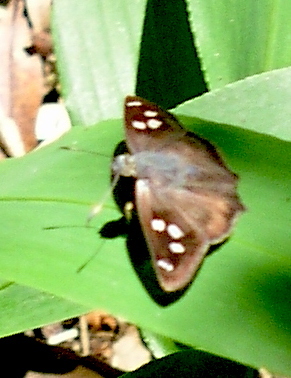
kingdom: Animalia
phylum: Arthropoda
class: Insecta
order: Lepidoptera
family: Hesperiidae
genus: Polygonus
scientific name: Polygonus leo
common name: Hammoch skipper
